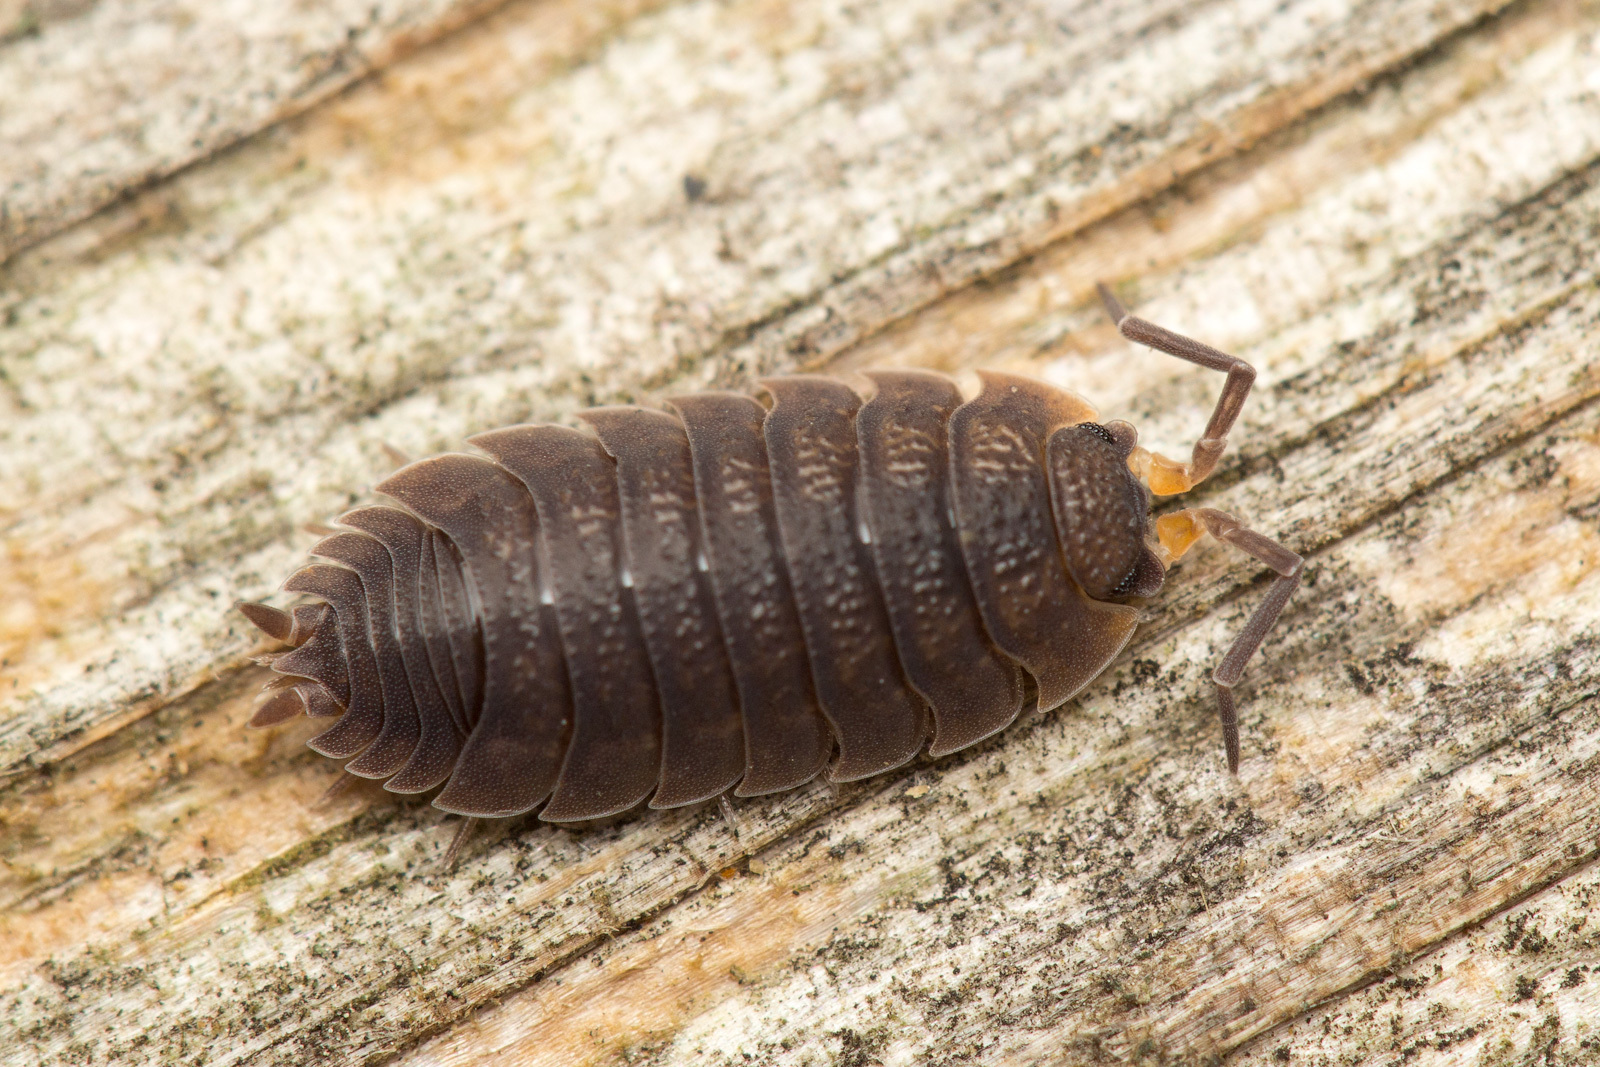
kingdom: Animalia
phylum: Arthropoda
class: Malacostraca
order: Isopoda
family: Porcellionidae
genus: Porcellio
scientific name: Porcellio scaber
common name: Common rough woodlouse
